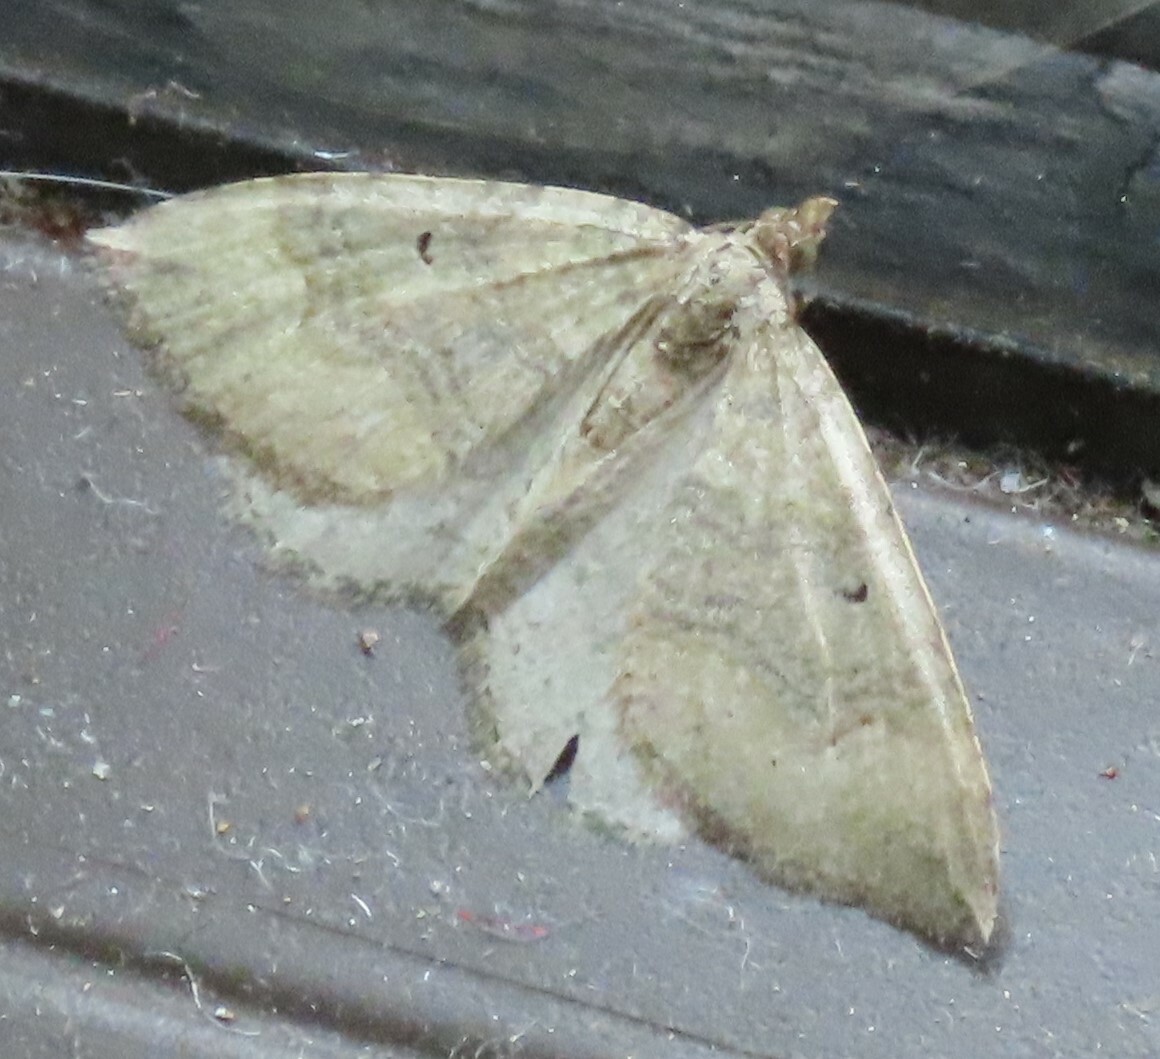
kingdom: Animalia
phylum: Arthropoda
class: Insecta
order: Lepidoptera
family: Geometridae
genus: Epyaxa
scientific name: Epyaxa rosearia
